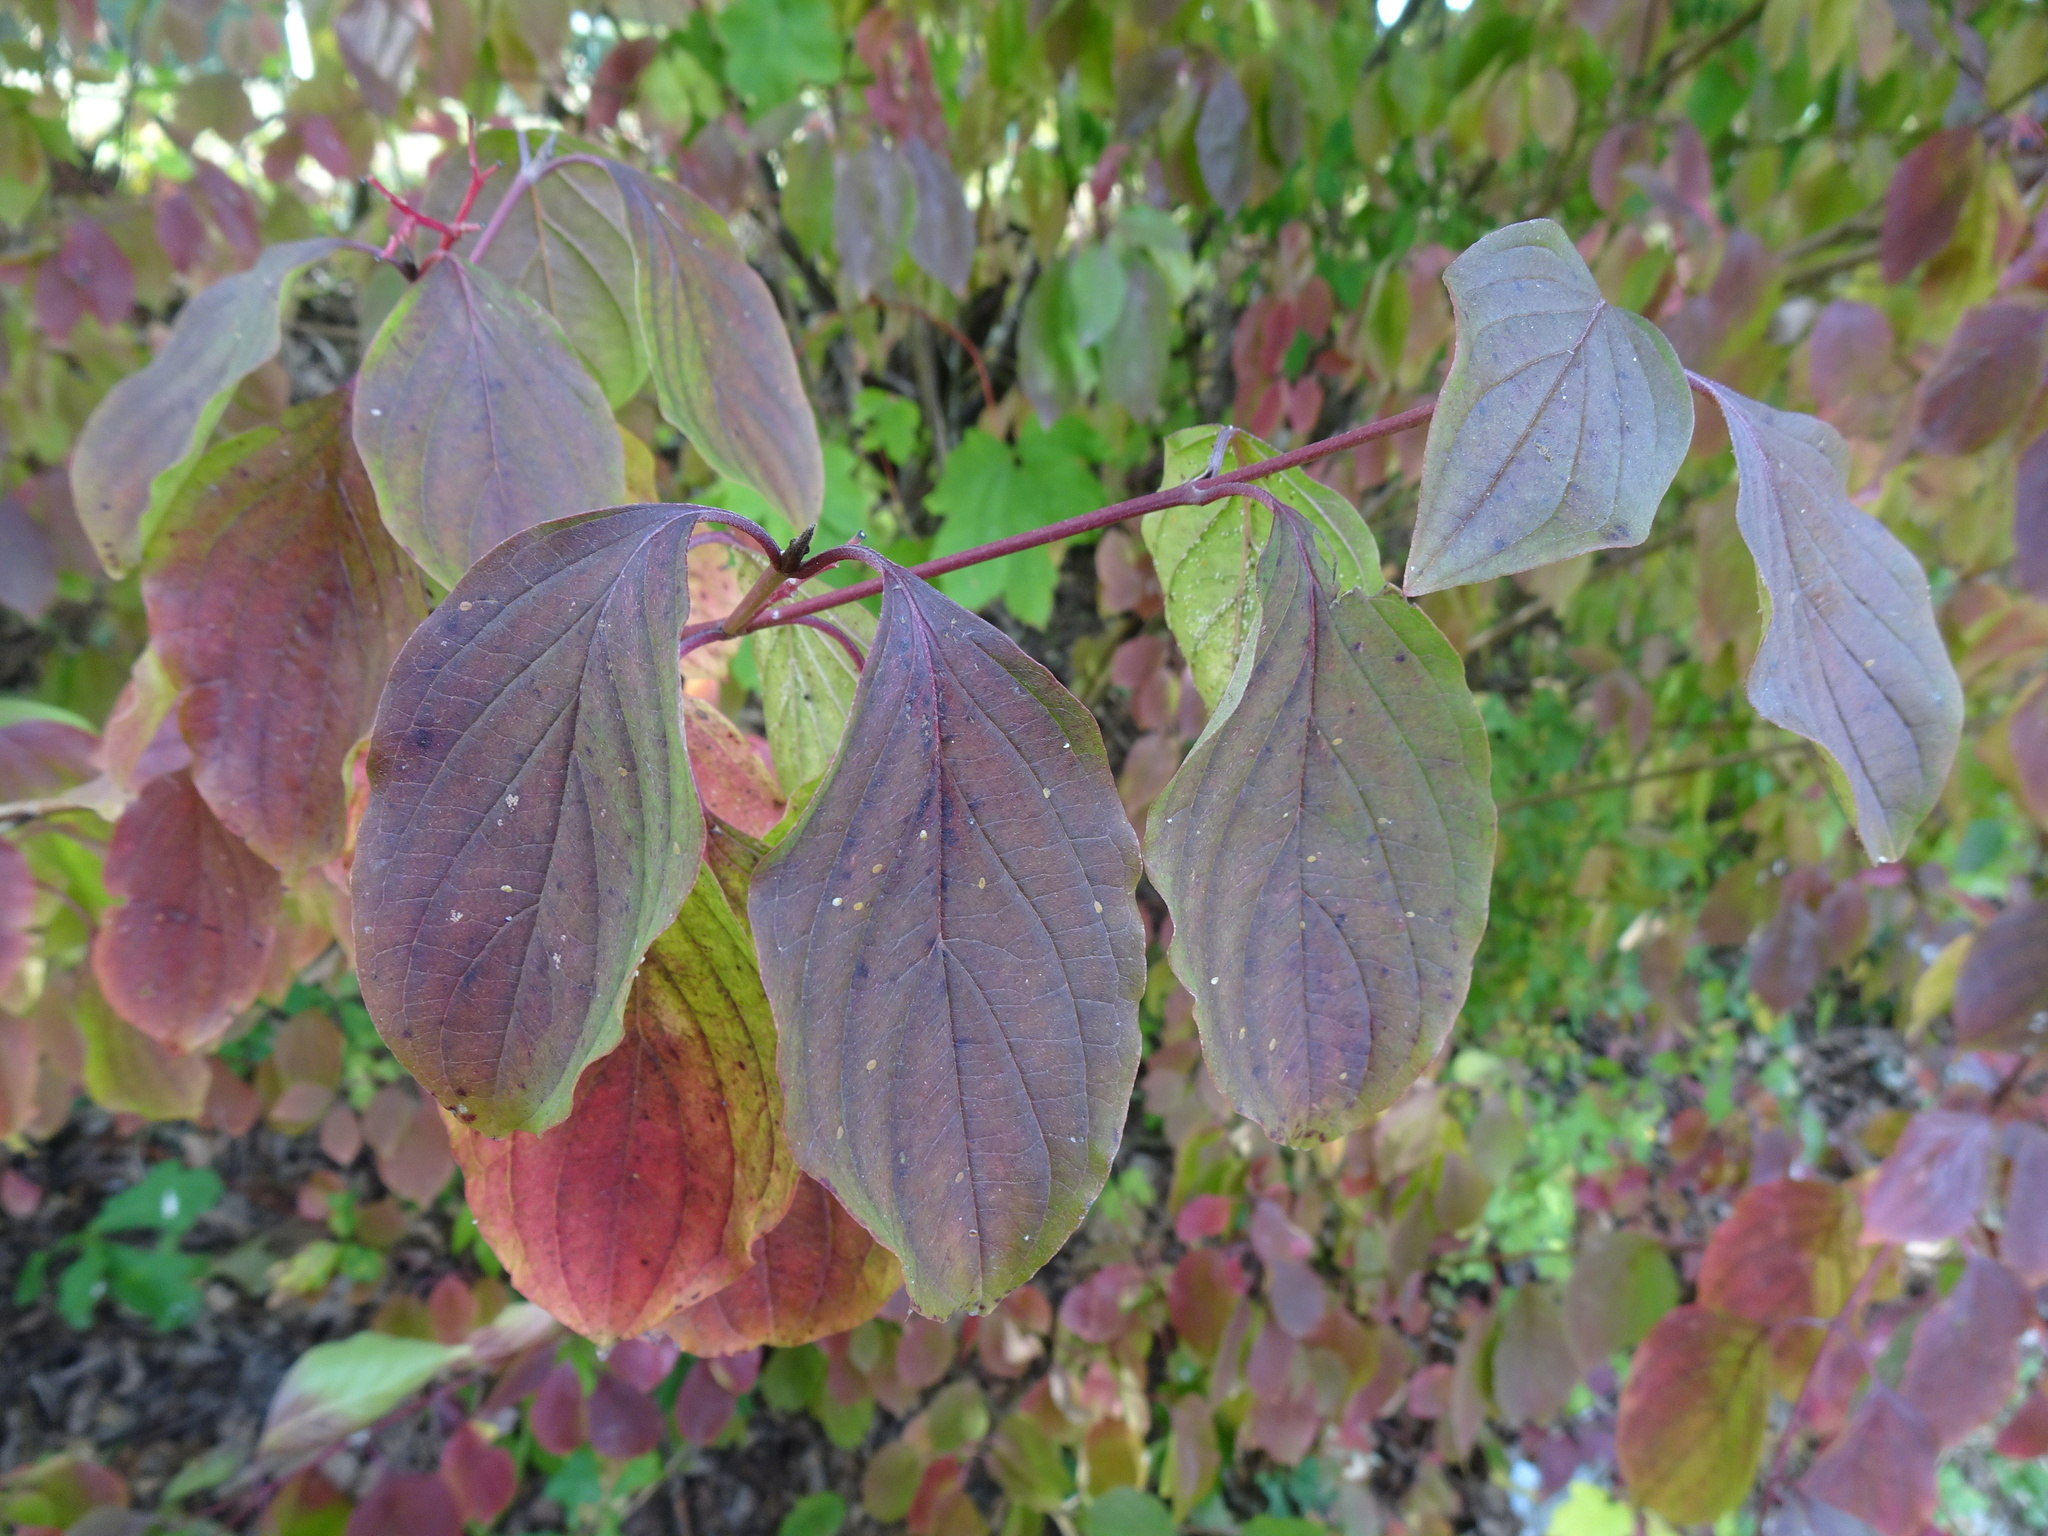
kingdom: Plantae
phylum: Tracheophyta
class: Magnoliopsida
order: Cornales
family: Cornaceae
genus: Cornus
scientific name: Cornus sanguinea
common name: Dogwood
